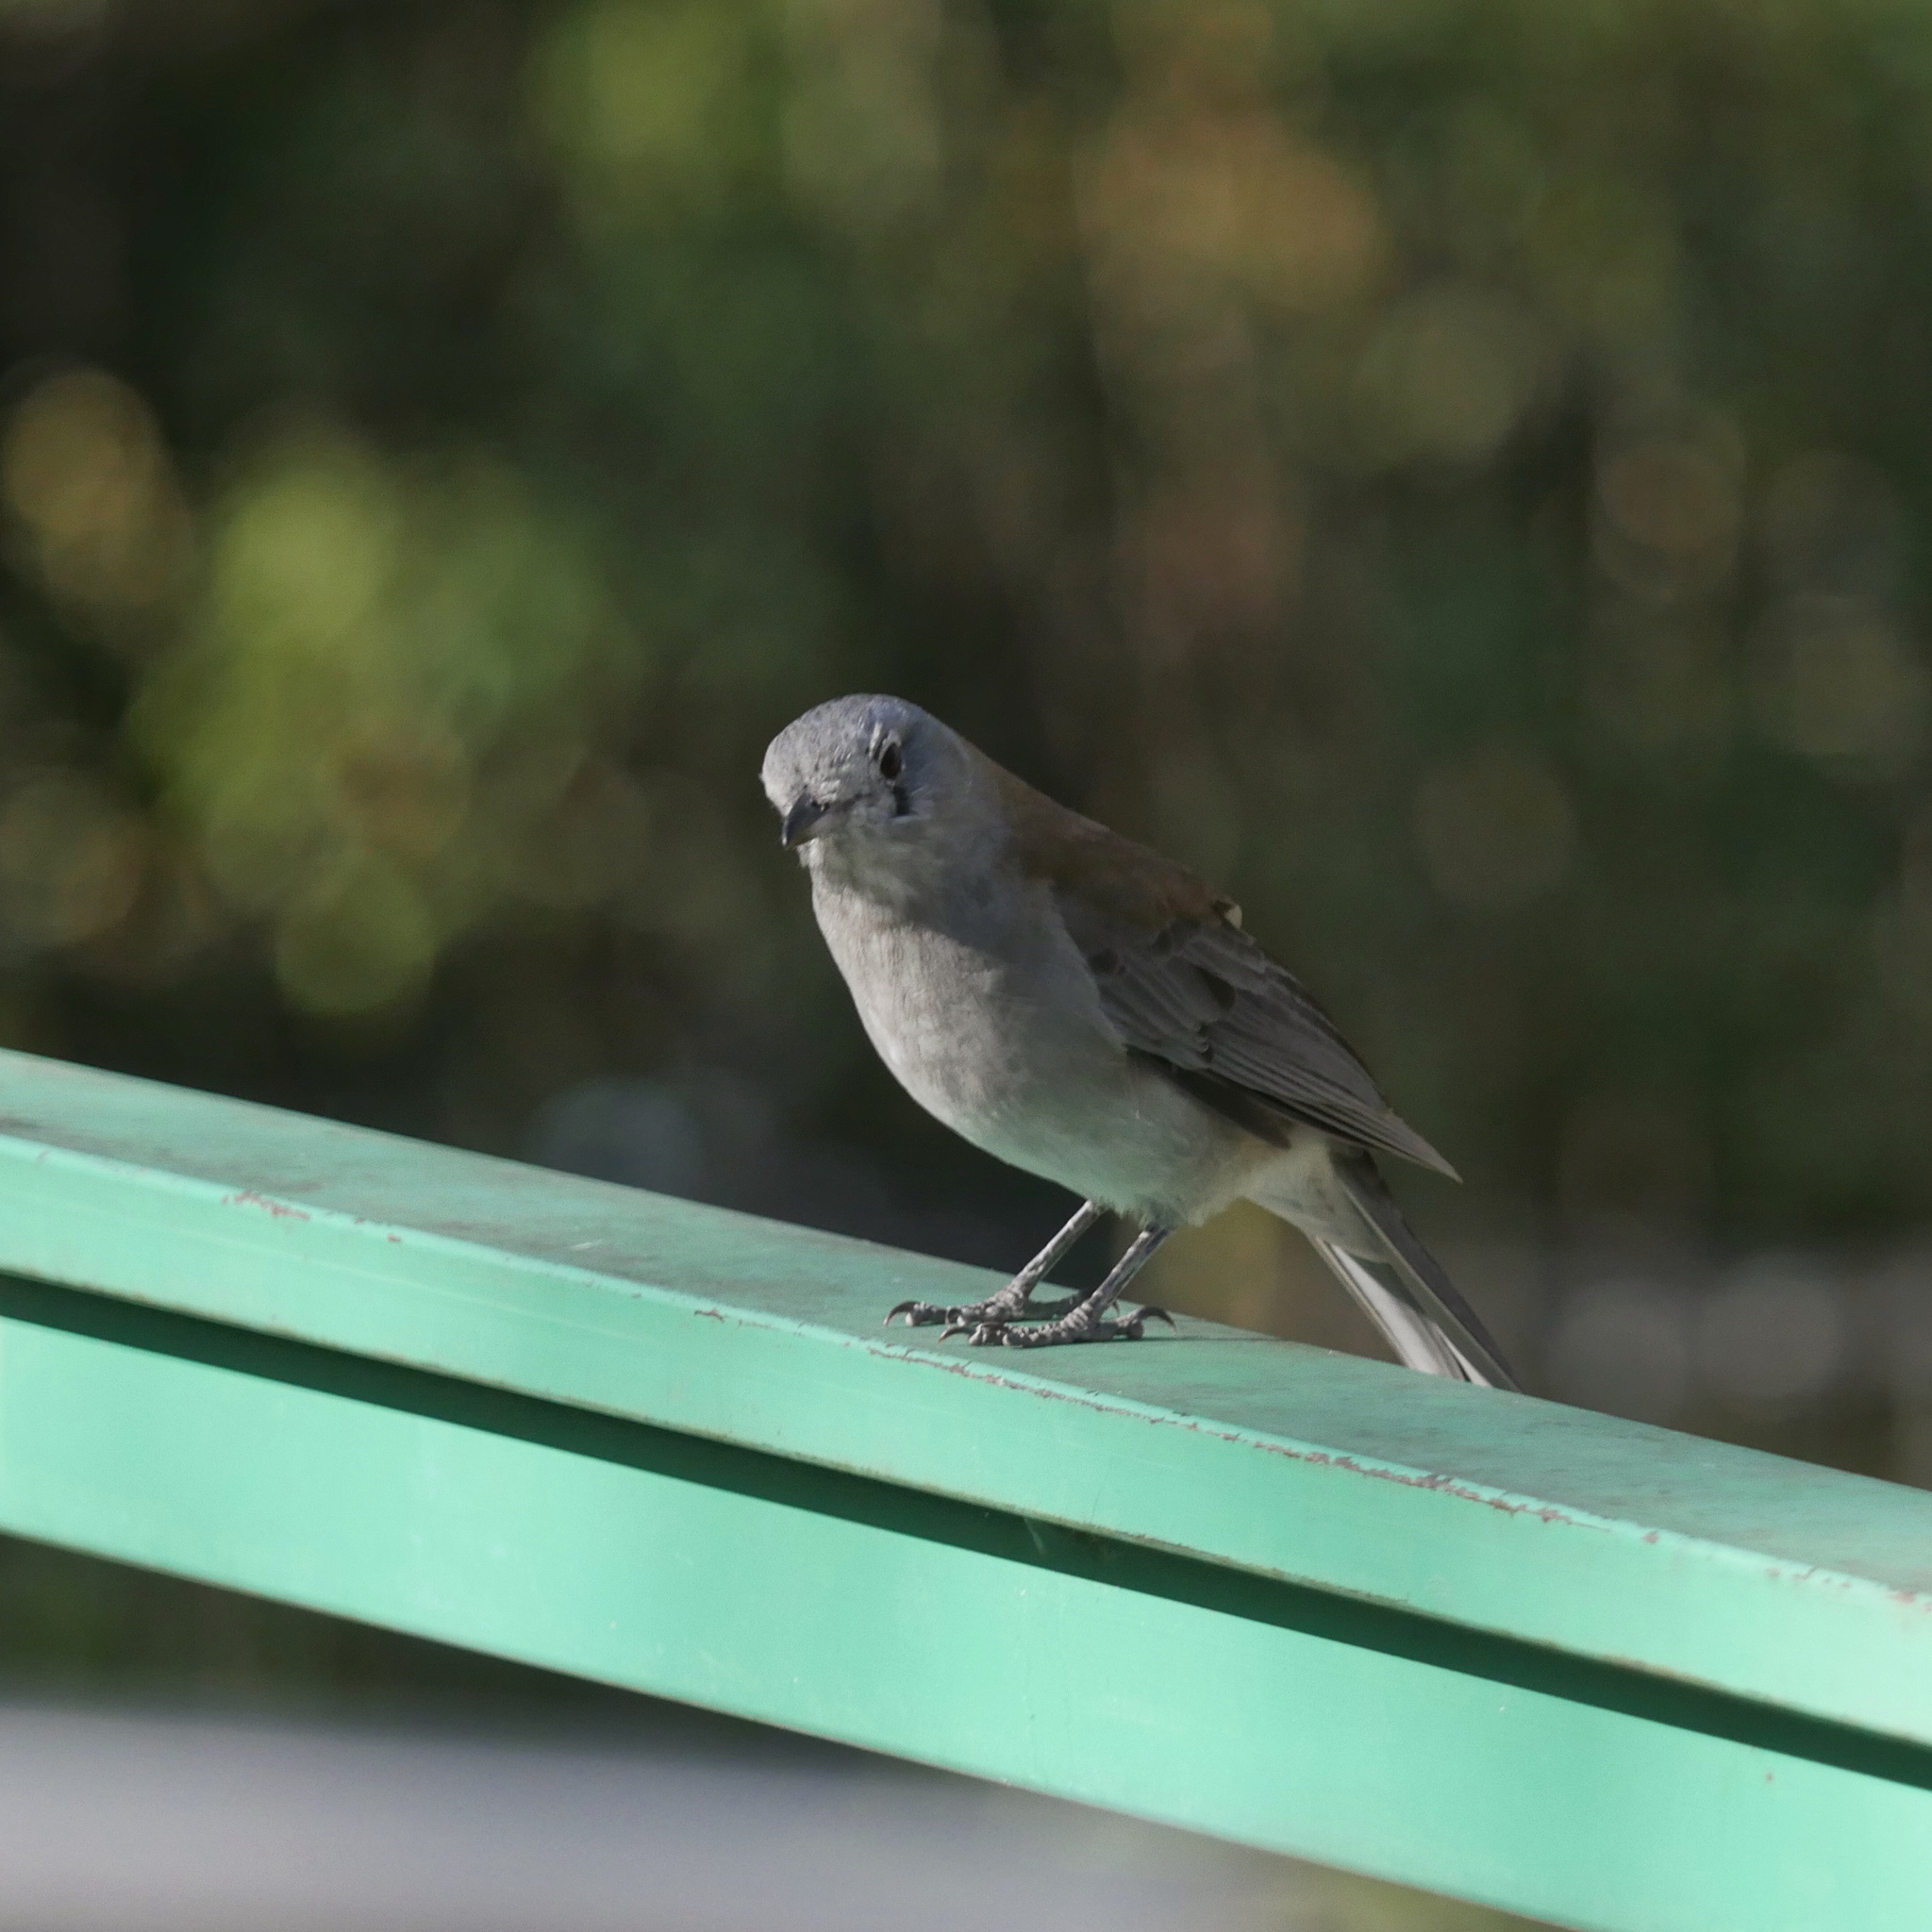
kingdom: Animalia
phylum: Chordata
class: Aves
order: Passeriformes
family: Pachycephalidae
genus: Colluricincla
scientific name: Colluricincla harmonica
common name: Grey shrikethrush
